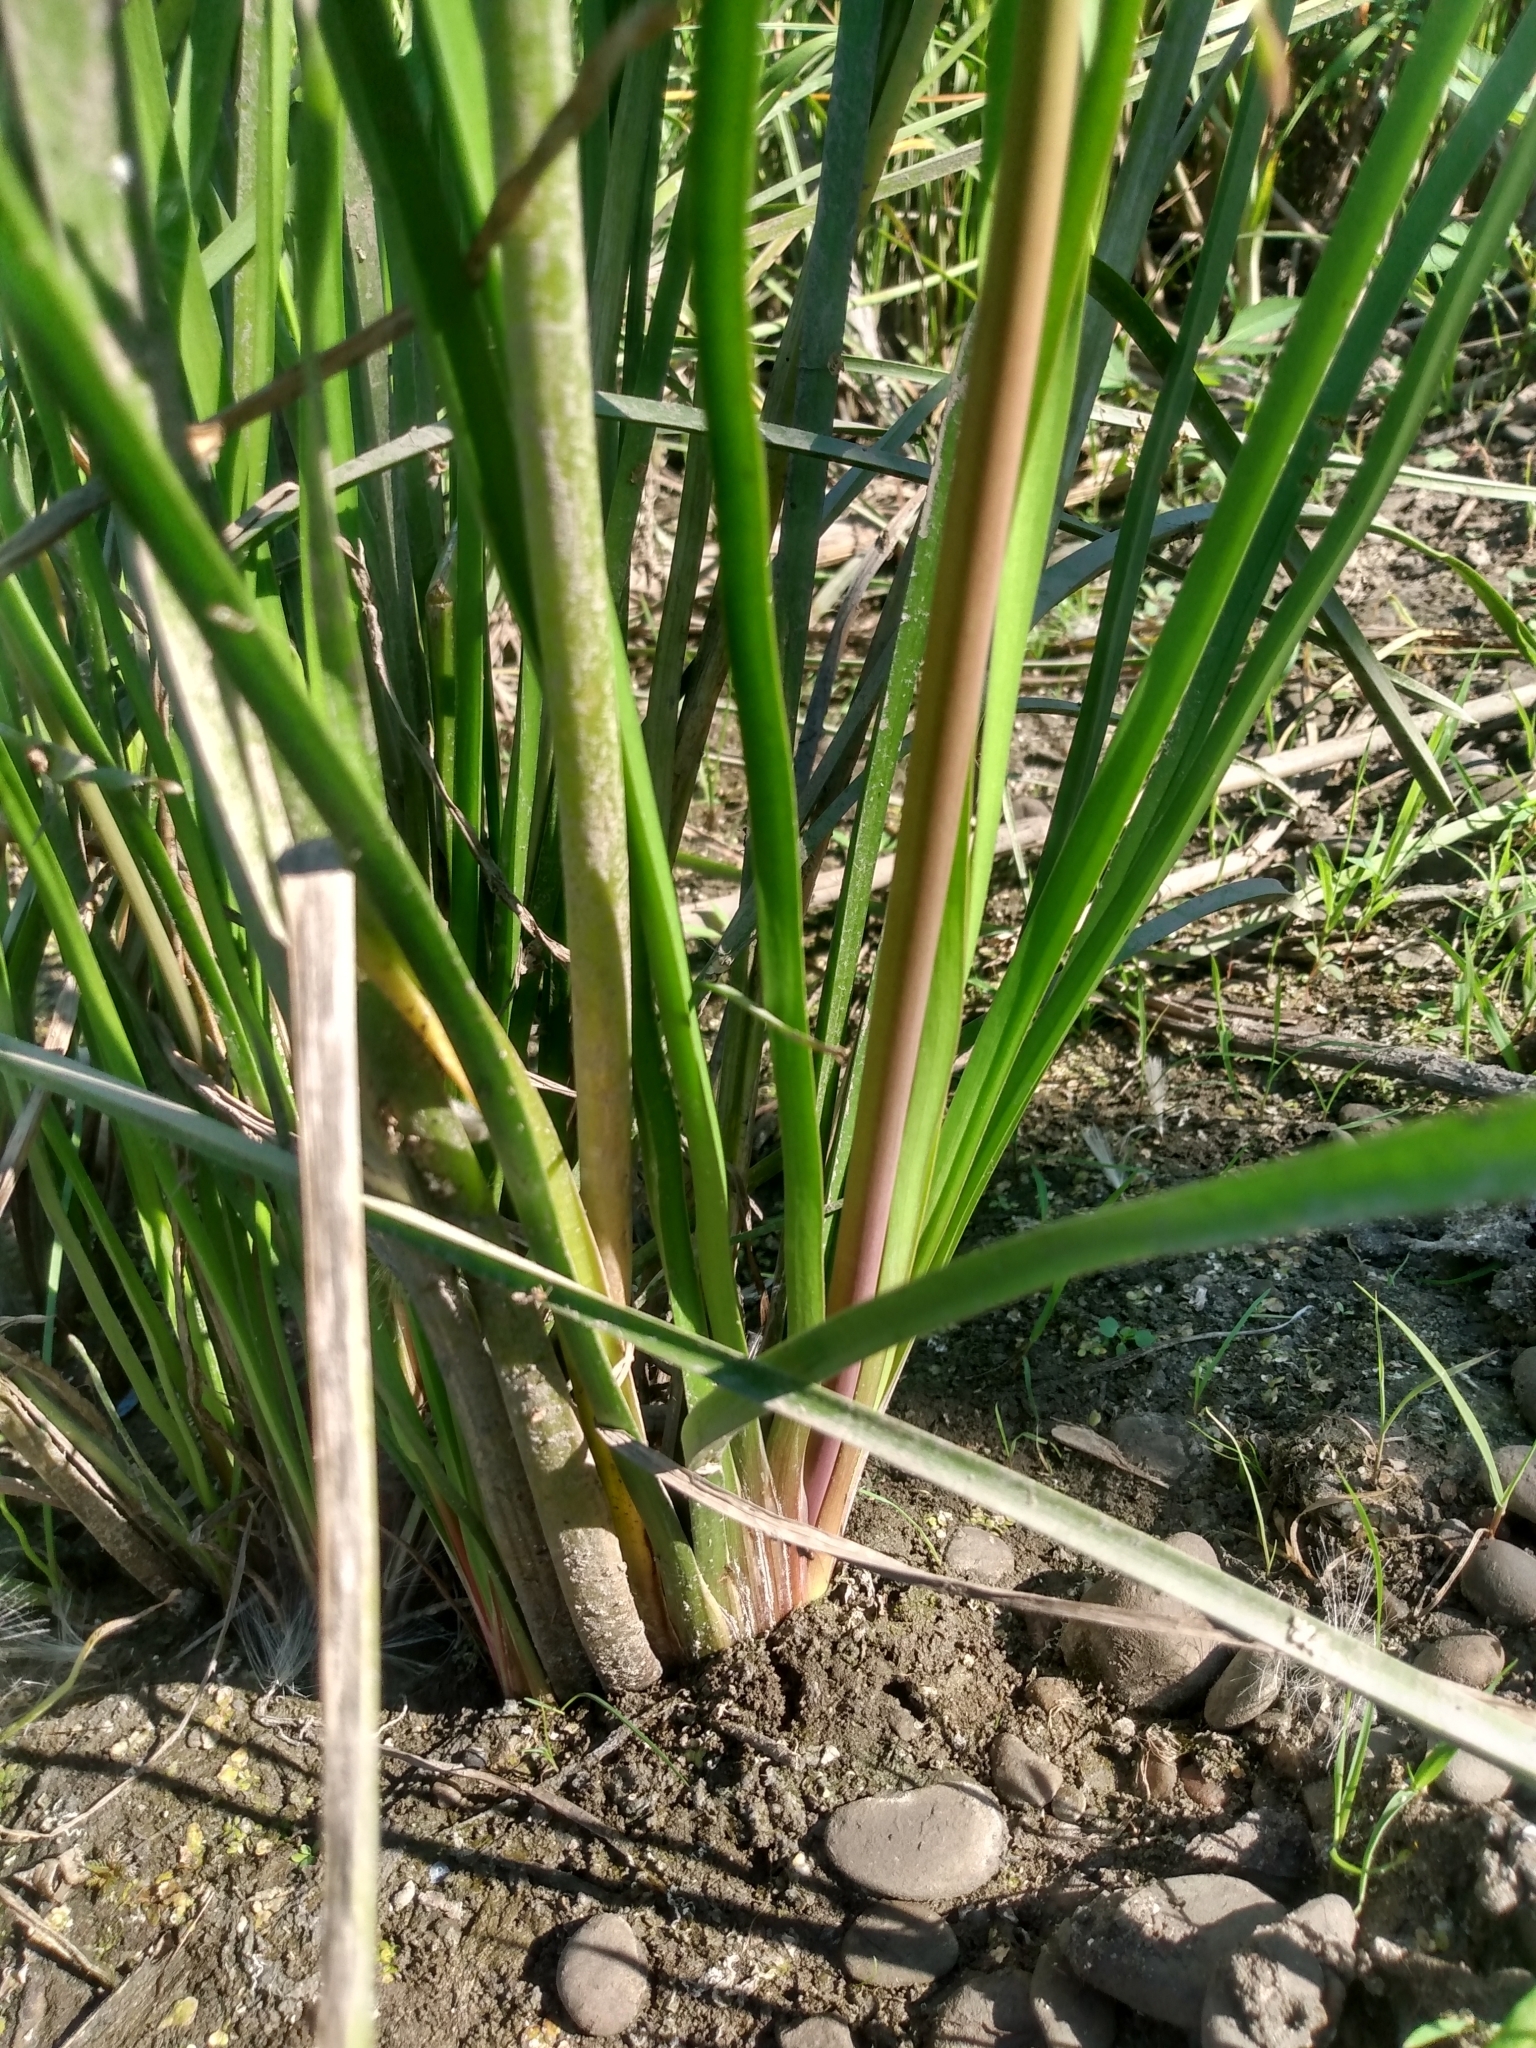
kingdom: Plantae
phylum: Tracheophyta
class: Liliopsida
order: Alismatales
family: Butomaceae
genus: Butomus
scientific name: Butomus umbellatus
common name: Flowering-rush
